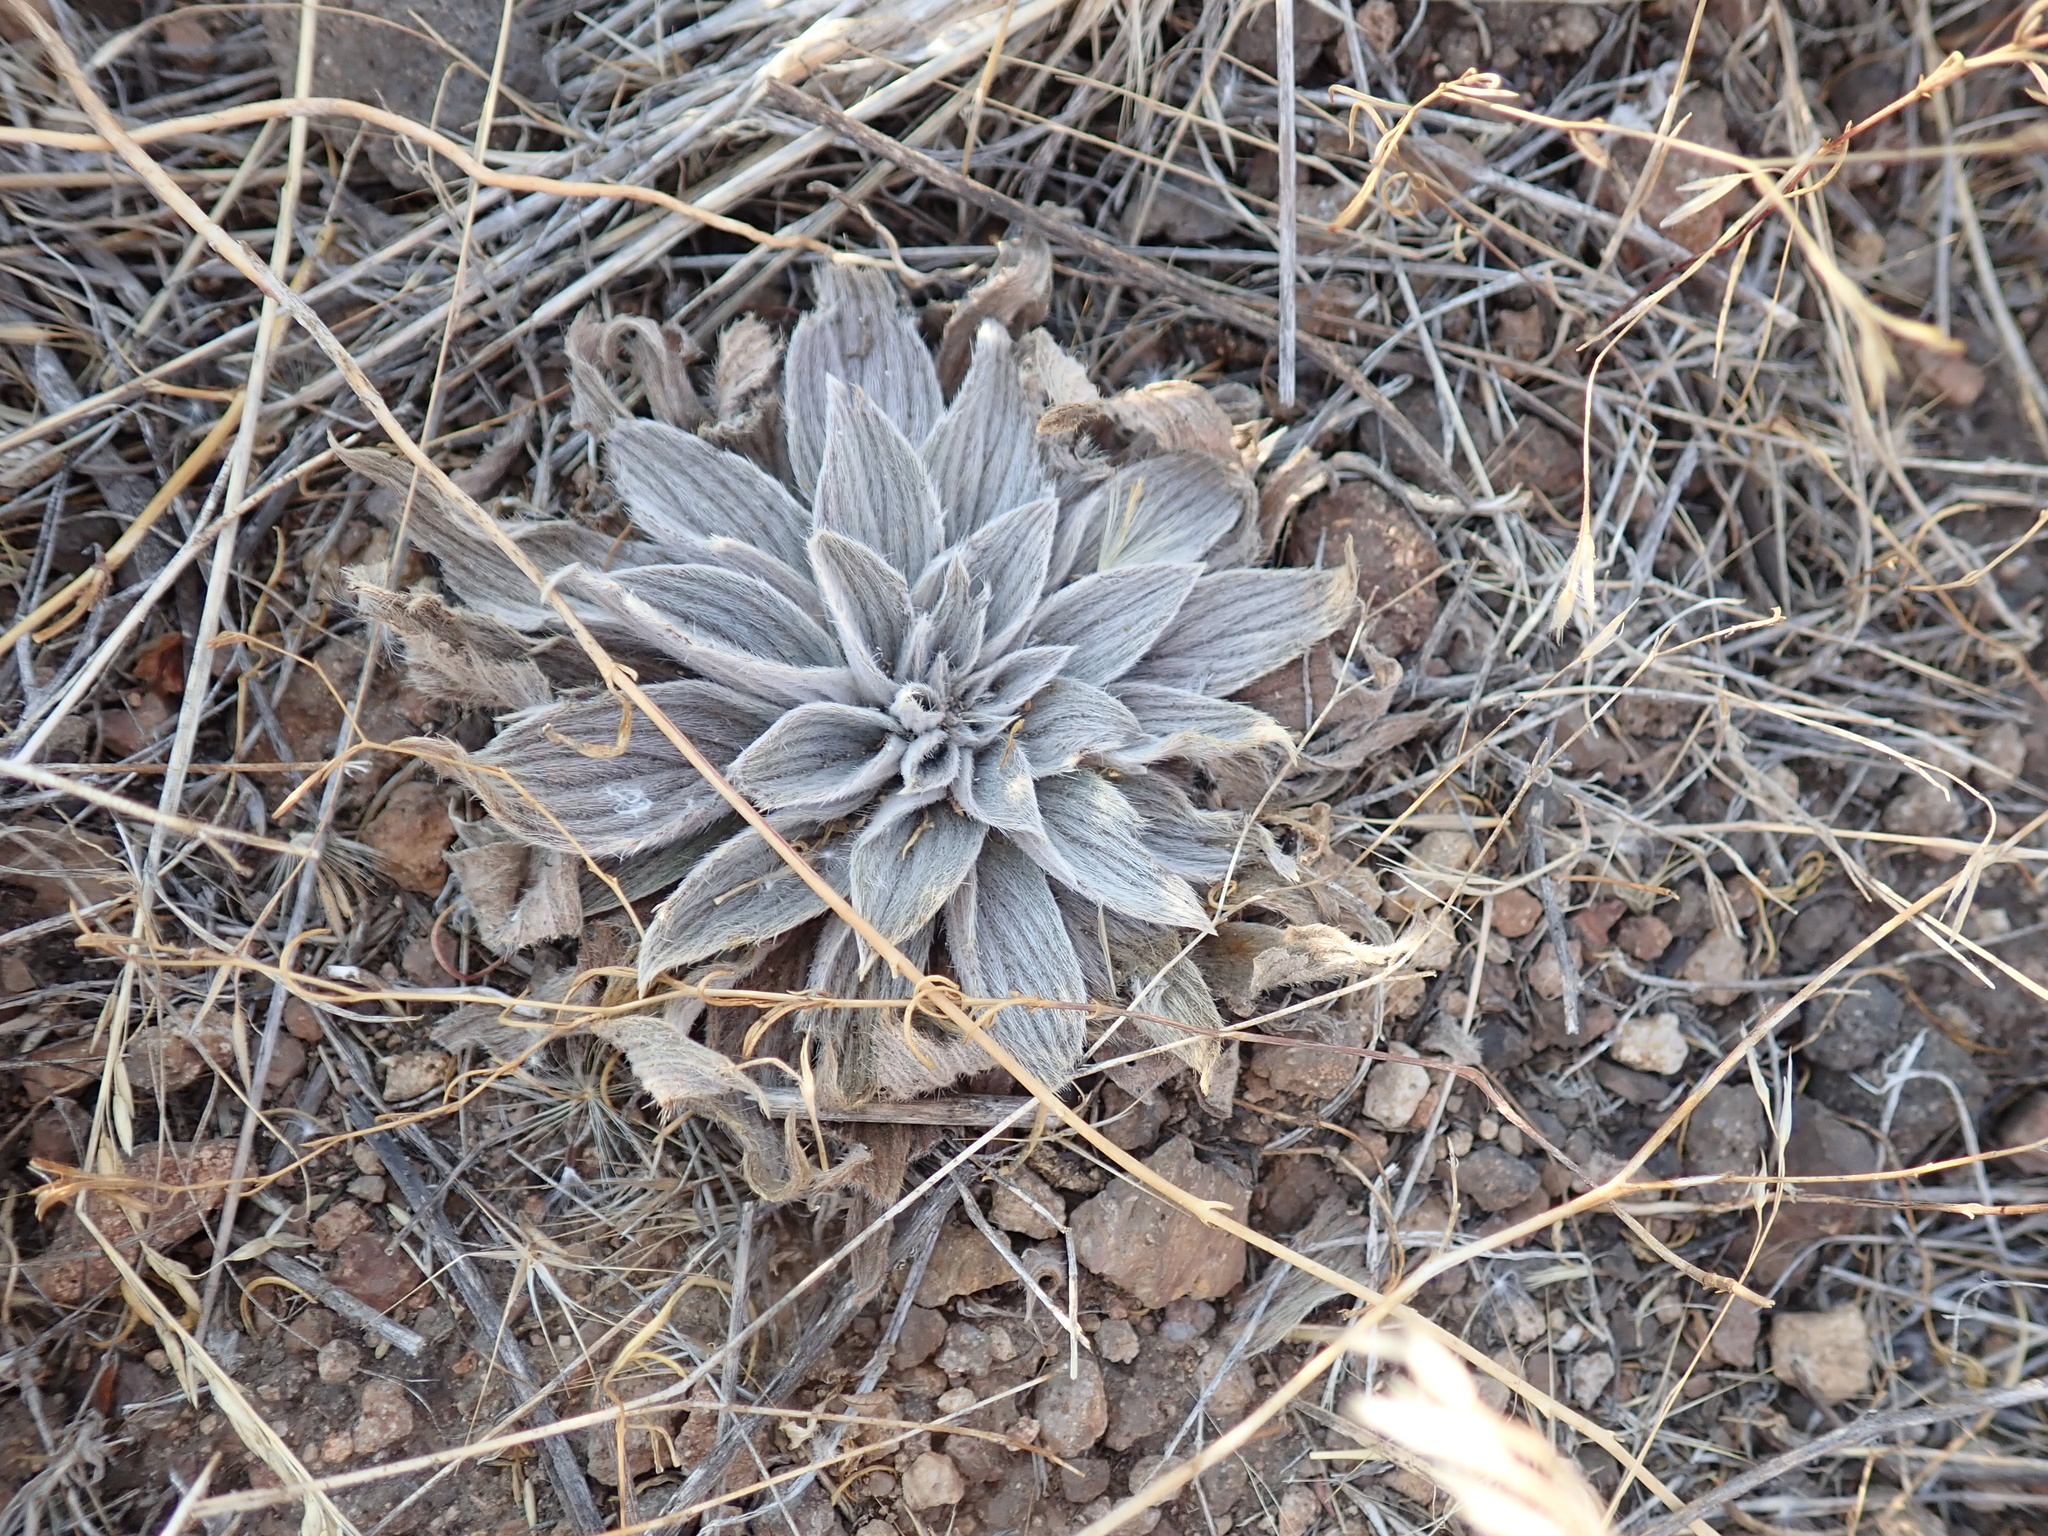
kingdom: Plantae
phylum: Tracheophyta
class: Magnoliopsida
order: Boraginales
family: Hydrophyllaceae
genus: Phacelia
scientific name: Phacelia hastata
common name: Silver-leaved phacelia
